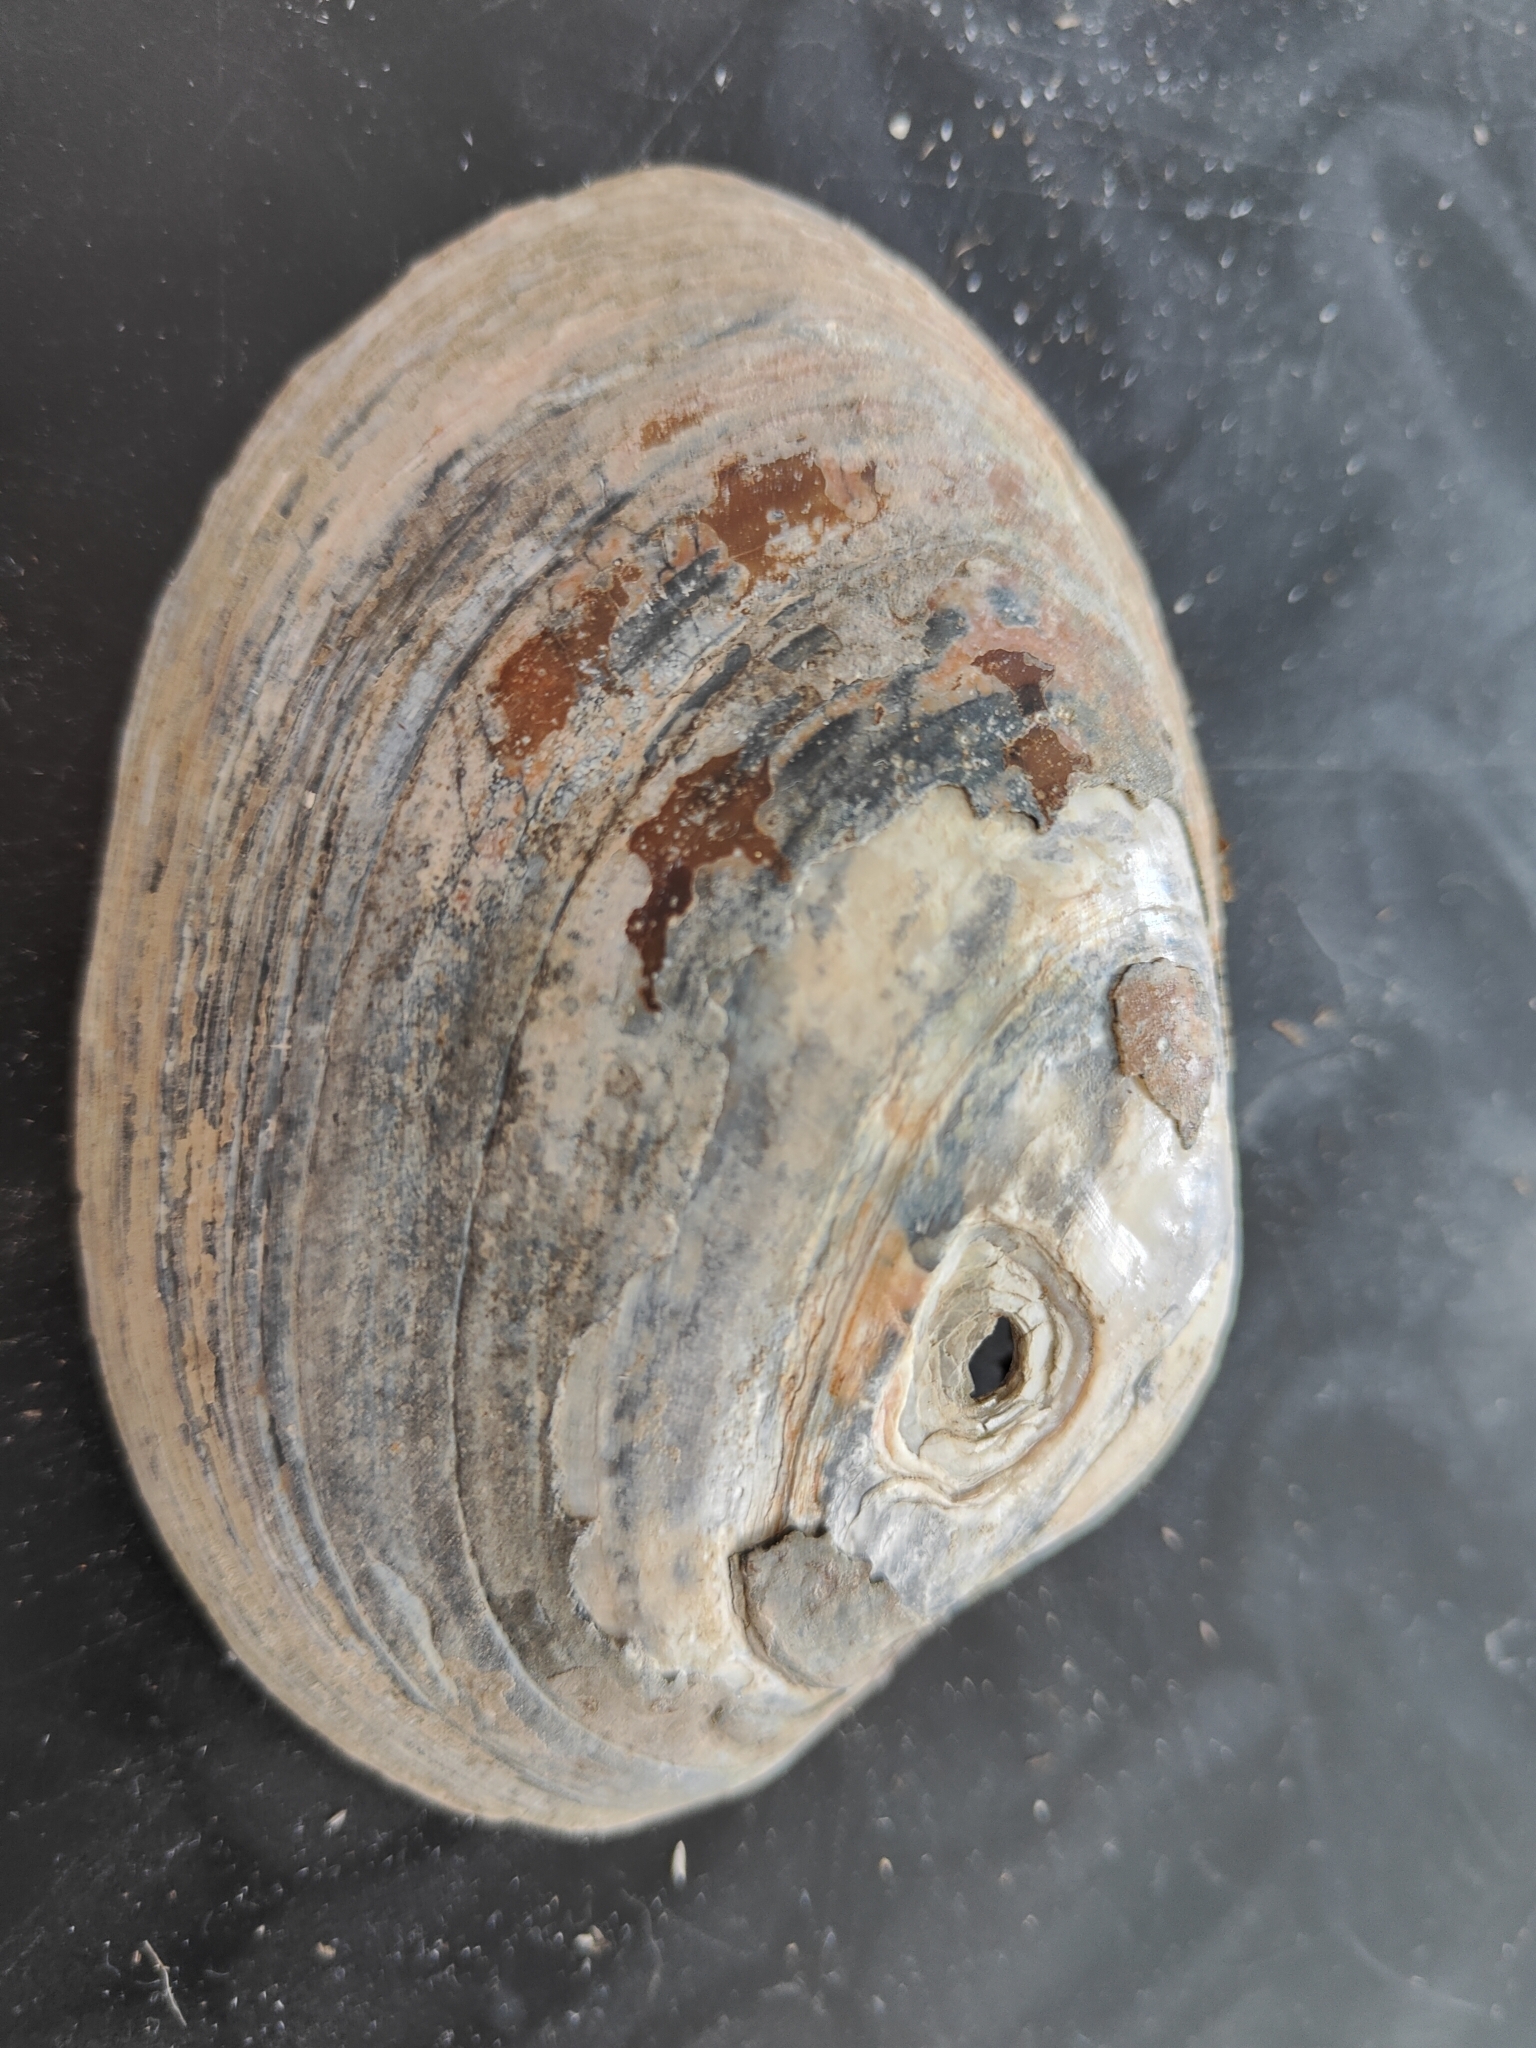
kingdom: Animalia
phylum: Mollusca
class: Bivalvia
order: Unionida
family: Unionidae
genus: Lampsilis
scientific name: Lampsilis cardium
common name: Plain pocketbook
